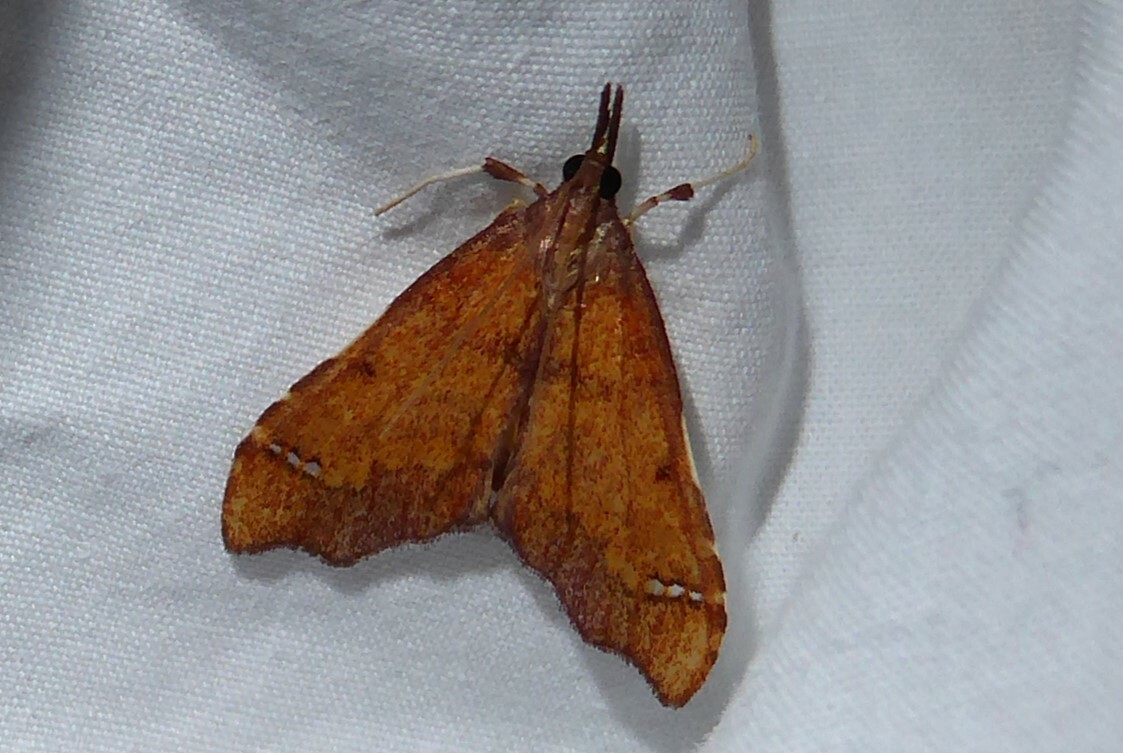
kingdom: Animalia
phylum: Arthropoda
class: Insecta
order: Lepidoptera
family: Crambidae
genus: Deana
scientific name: Deana hybreasalis
